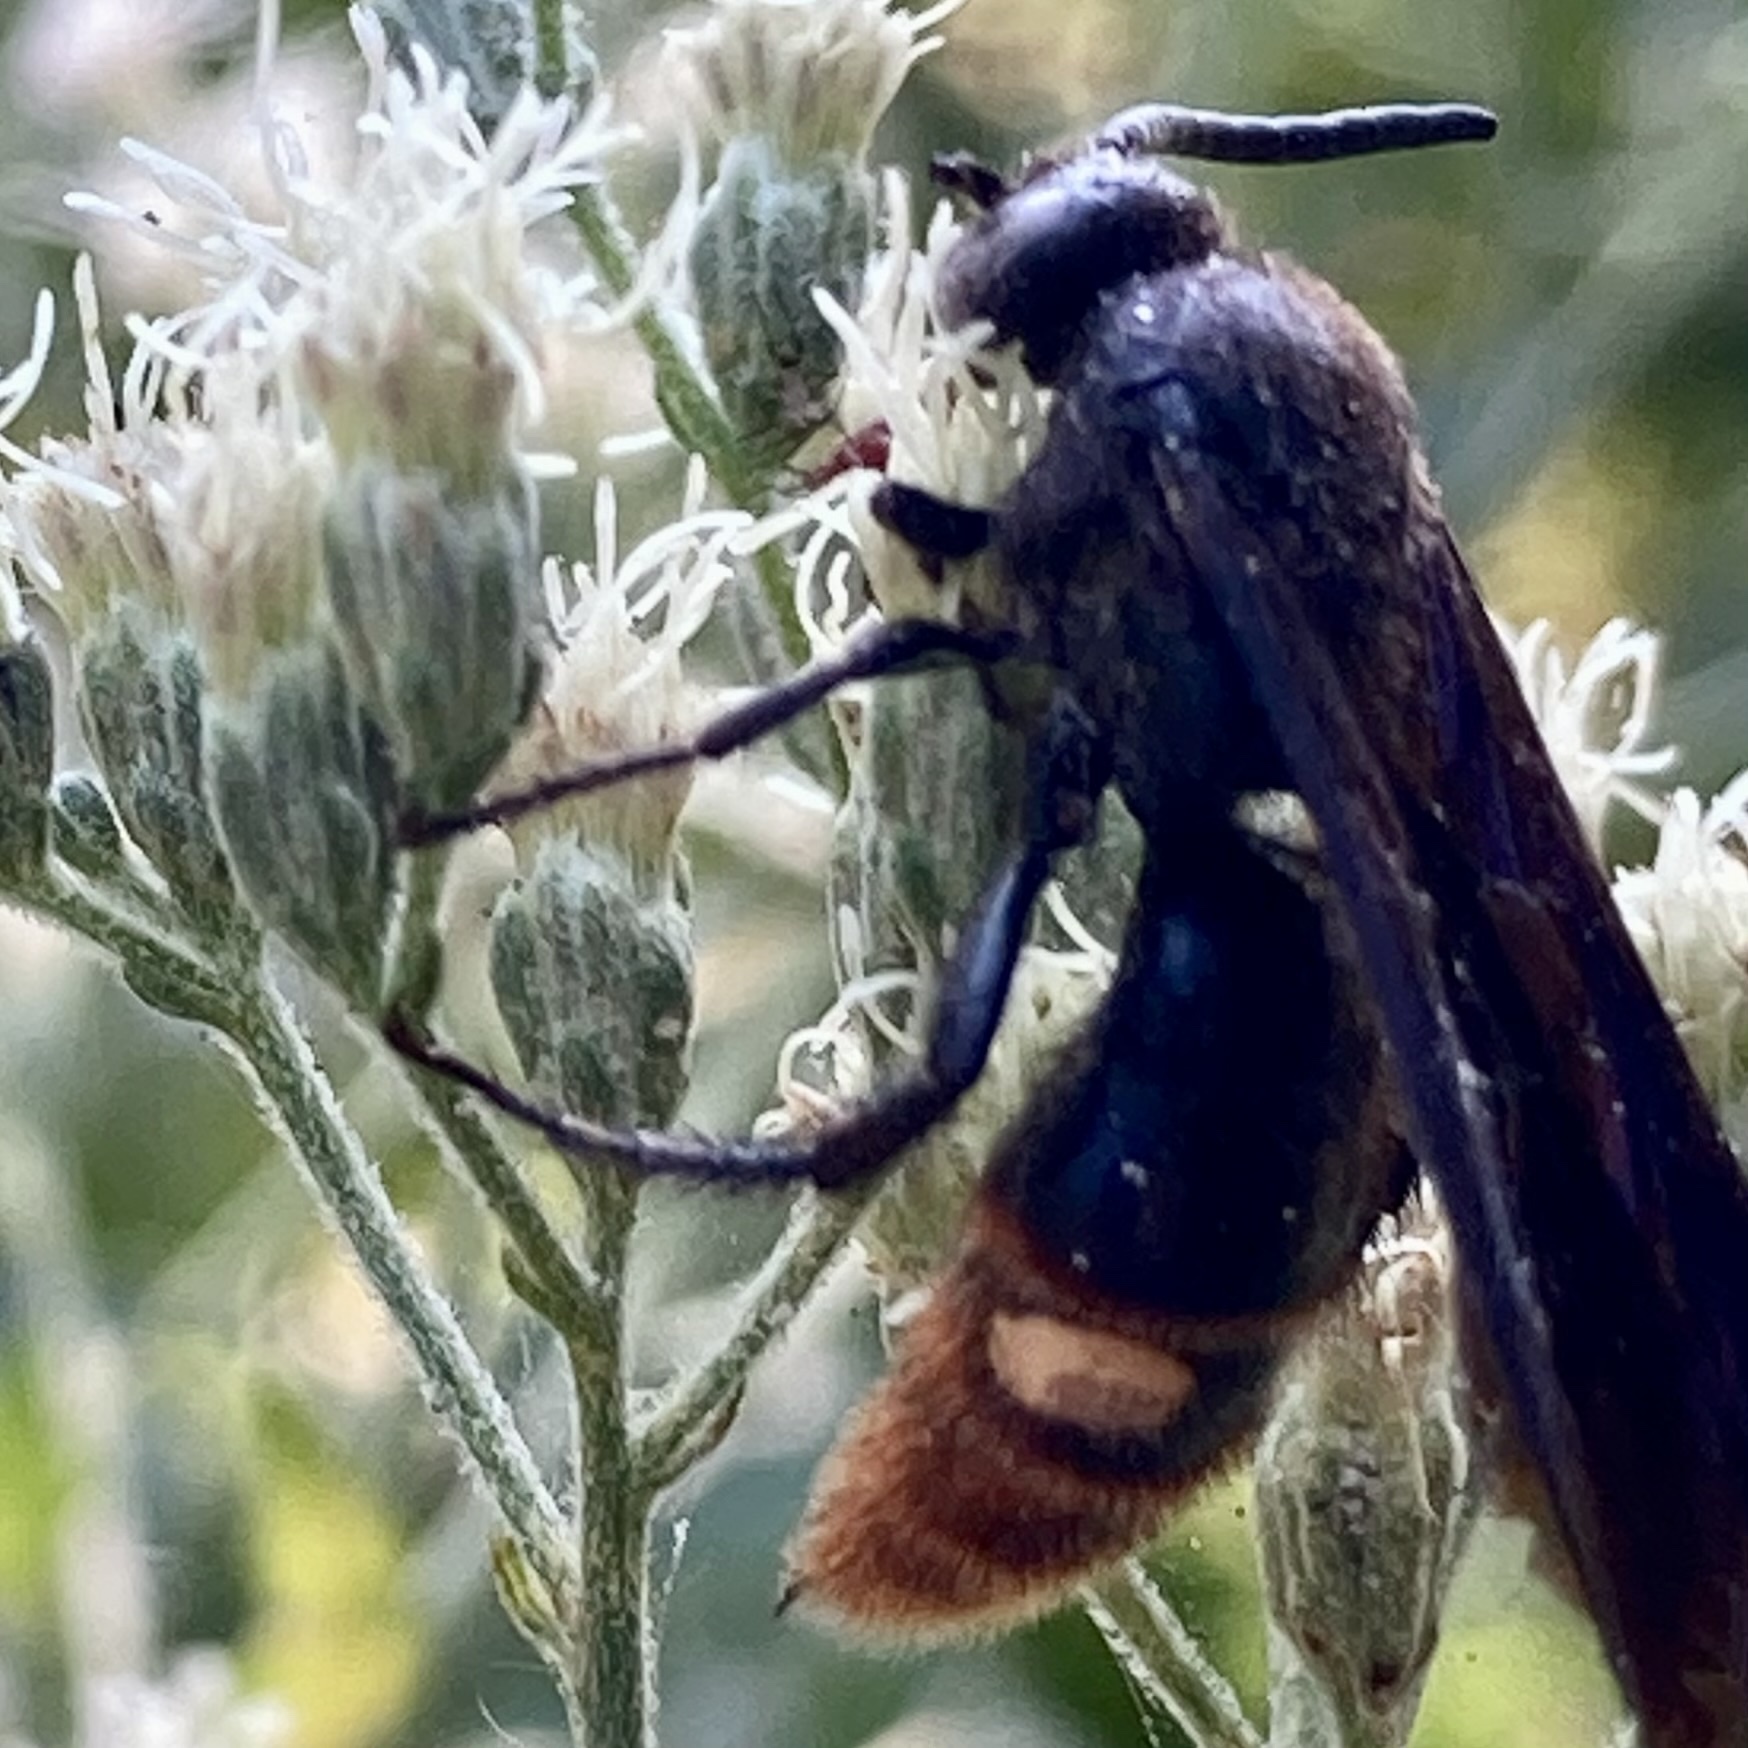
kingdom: Animalia
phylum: Arthropoda
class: Insecta
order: Hymenoptera
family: Scoliidae
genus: Scolia
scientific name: Scolia dubia
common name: Blue-winged scoliid wasp
